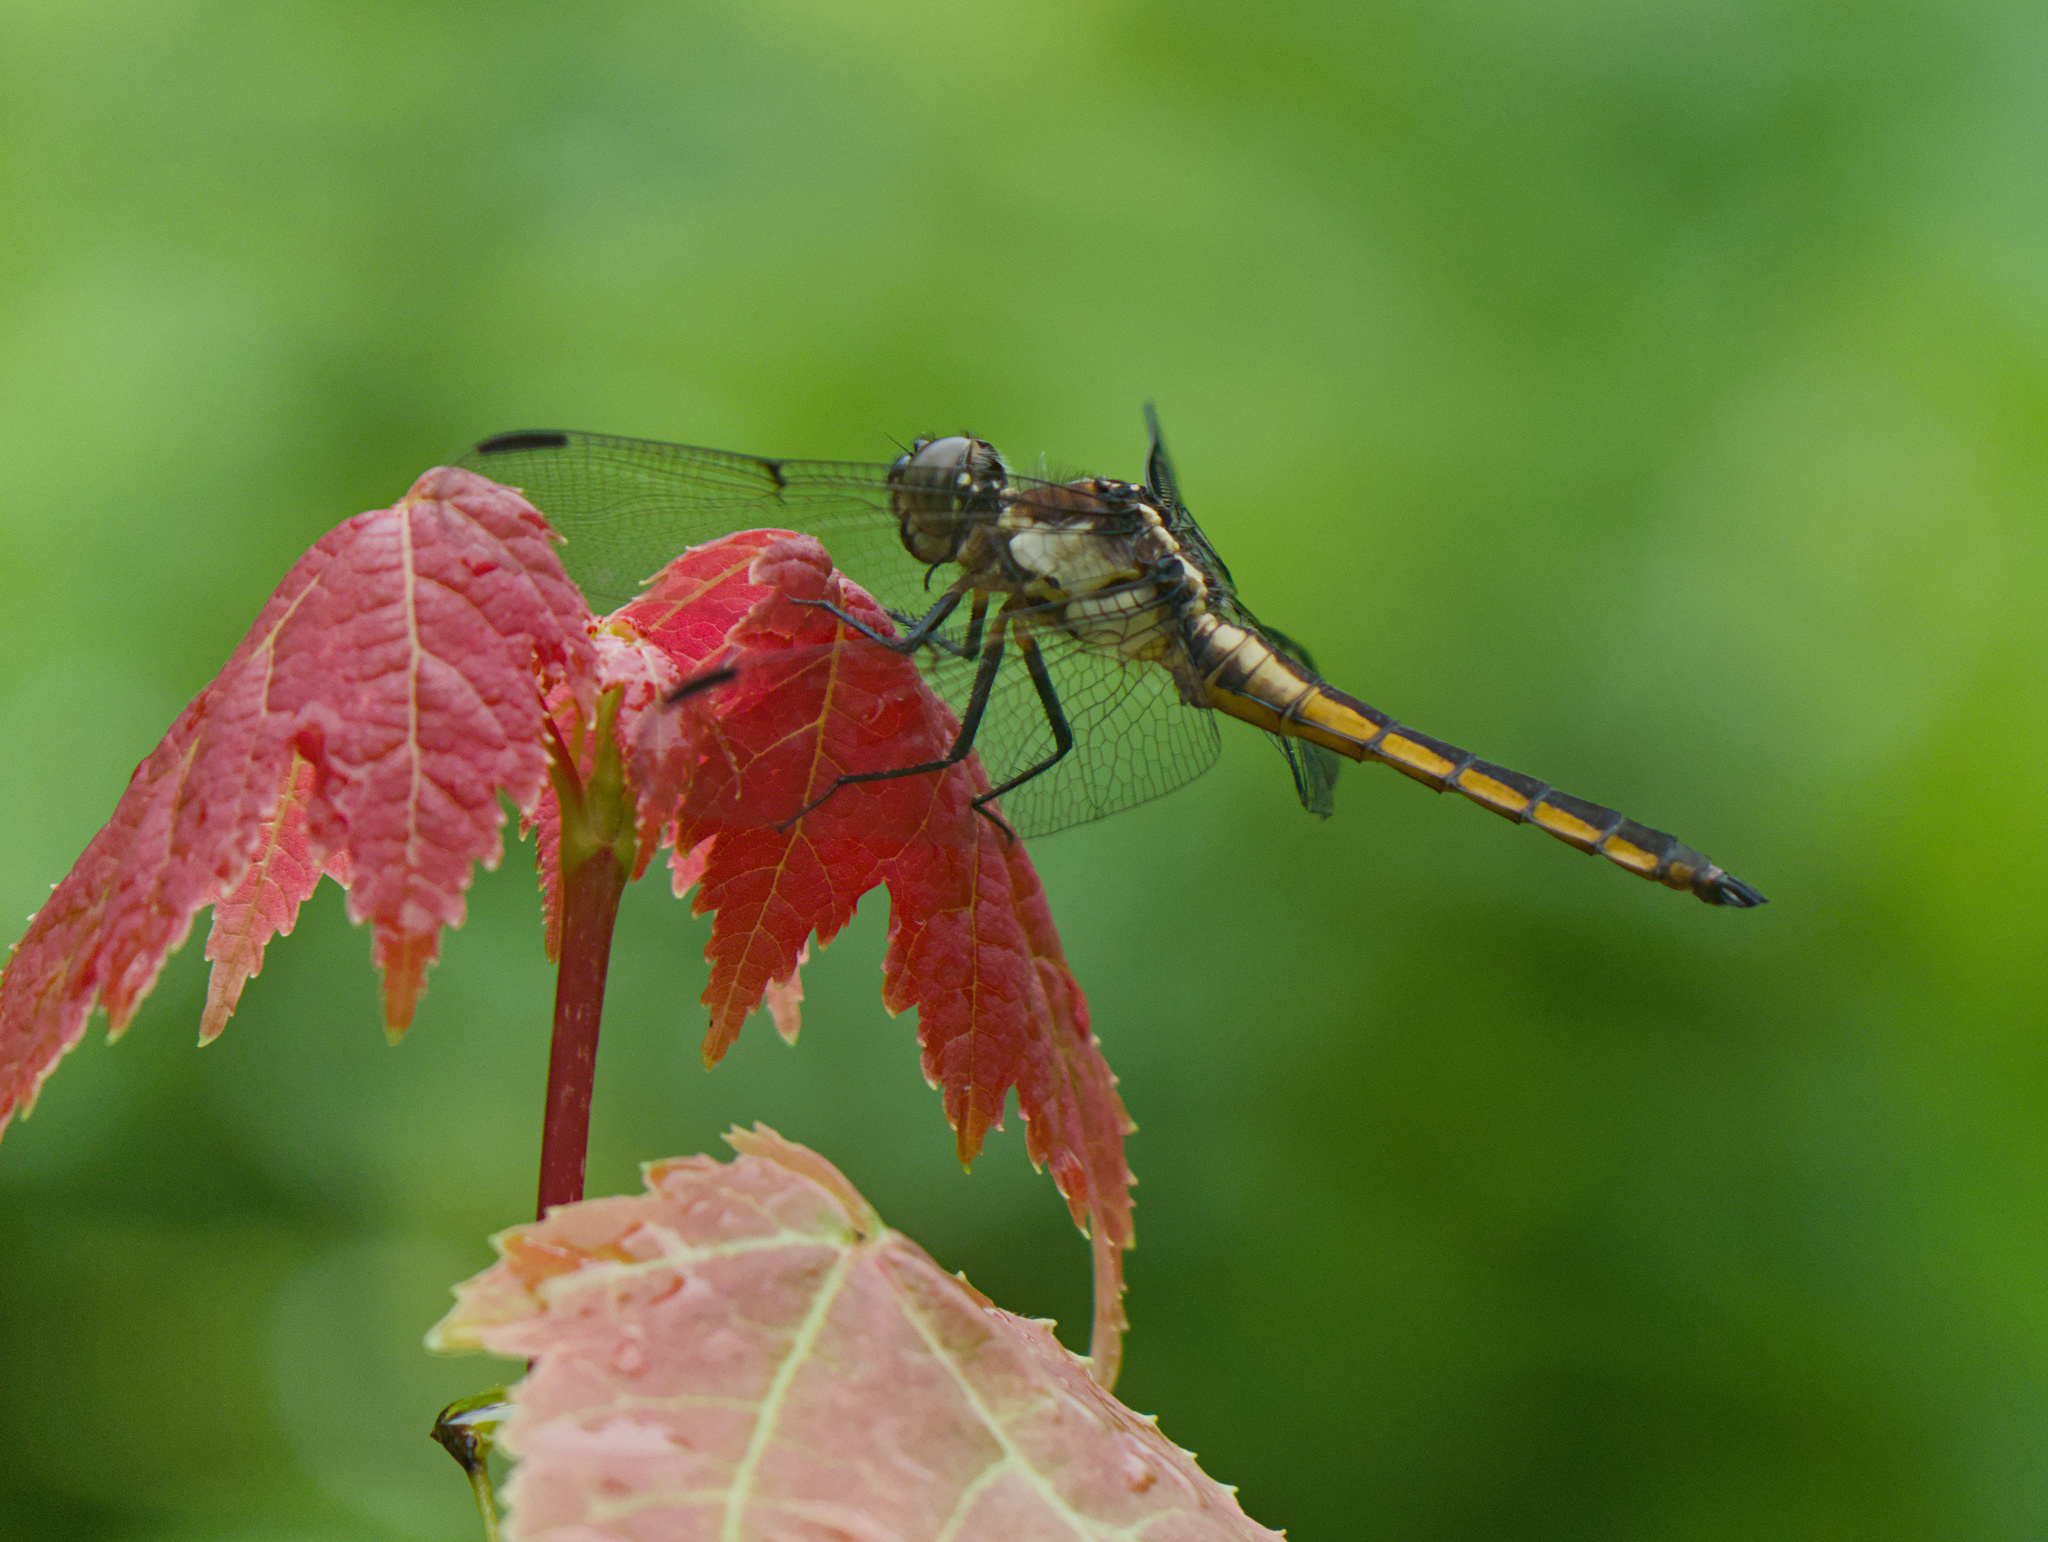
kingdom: Animalia
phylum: Arthropoda
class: Insecta
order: Odonata
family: Libellulidae
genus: Libellula
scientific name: Libellula incesta
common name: Slaty skimmer
